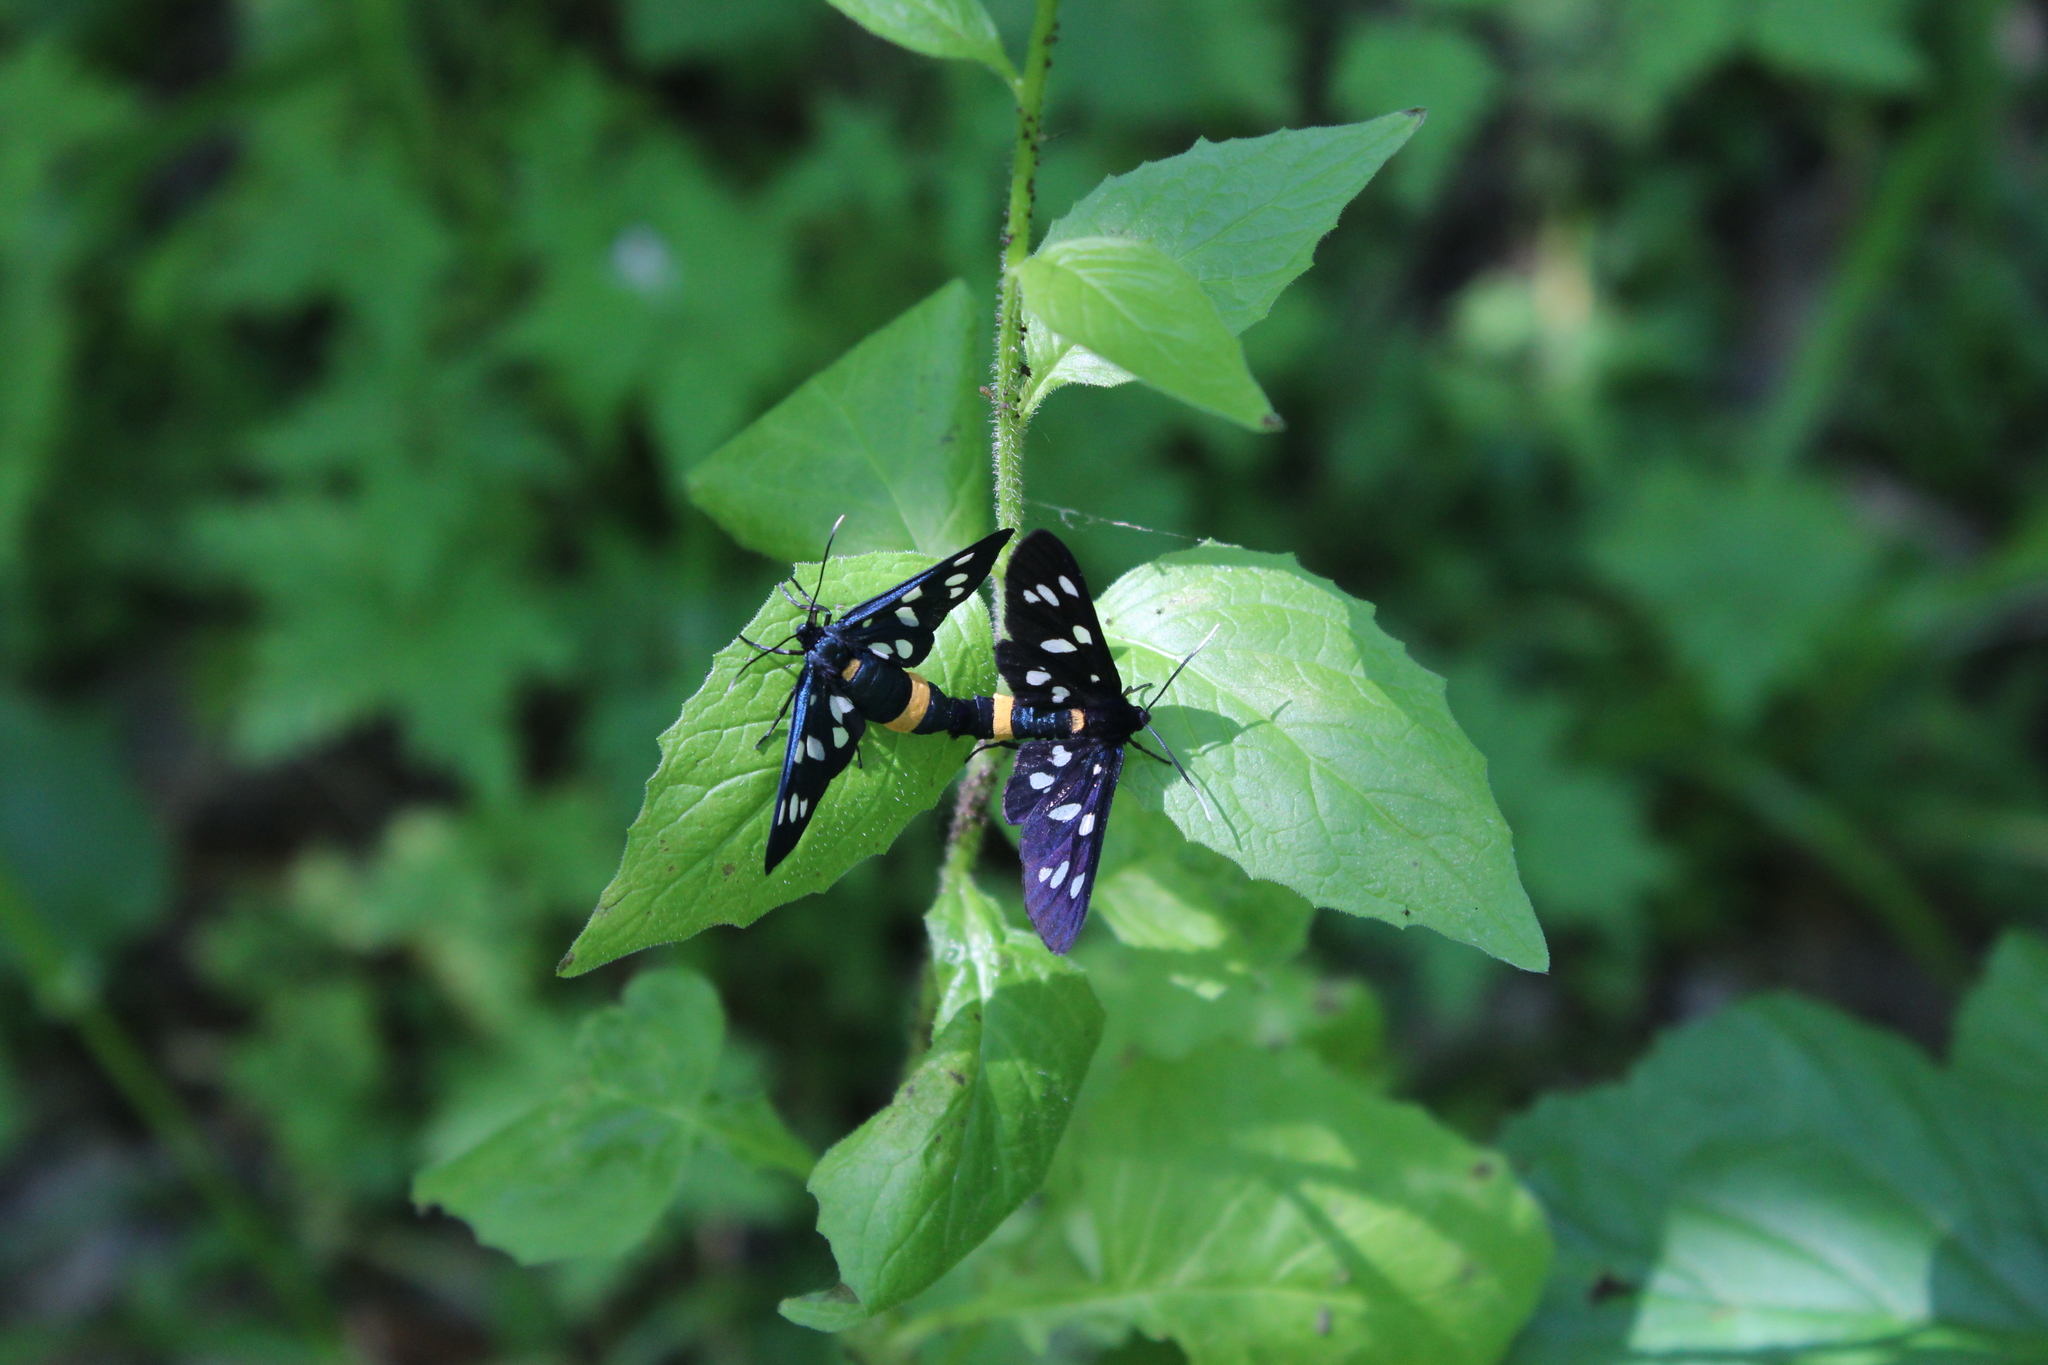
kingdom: Animalia
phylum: Arthropoda
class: Insecta
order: Lepidoptera
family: Erebidae
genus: Amata
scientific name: Amata phegea
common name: Nine-spotted
